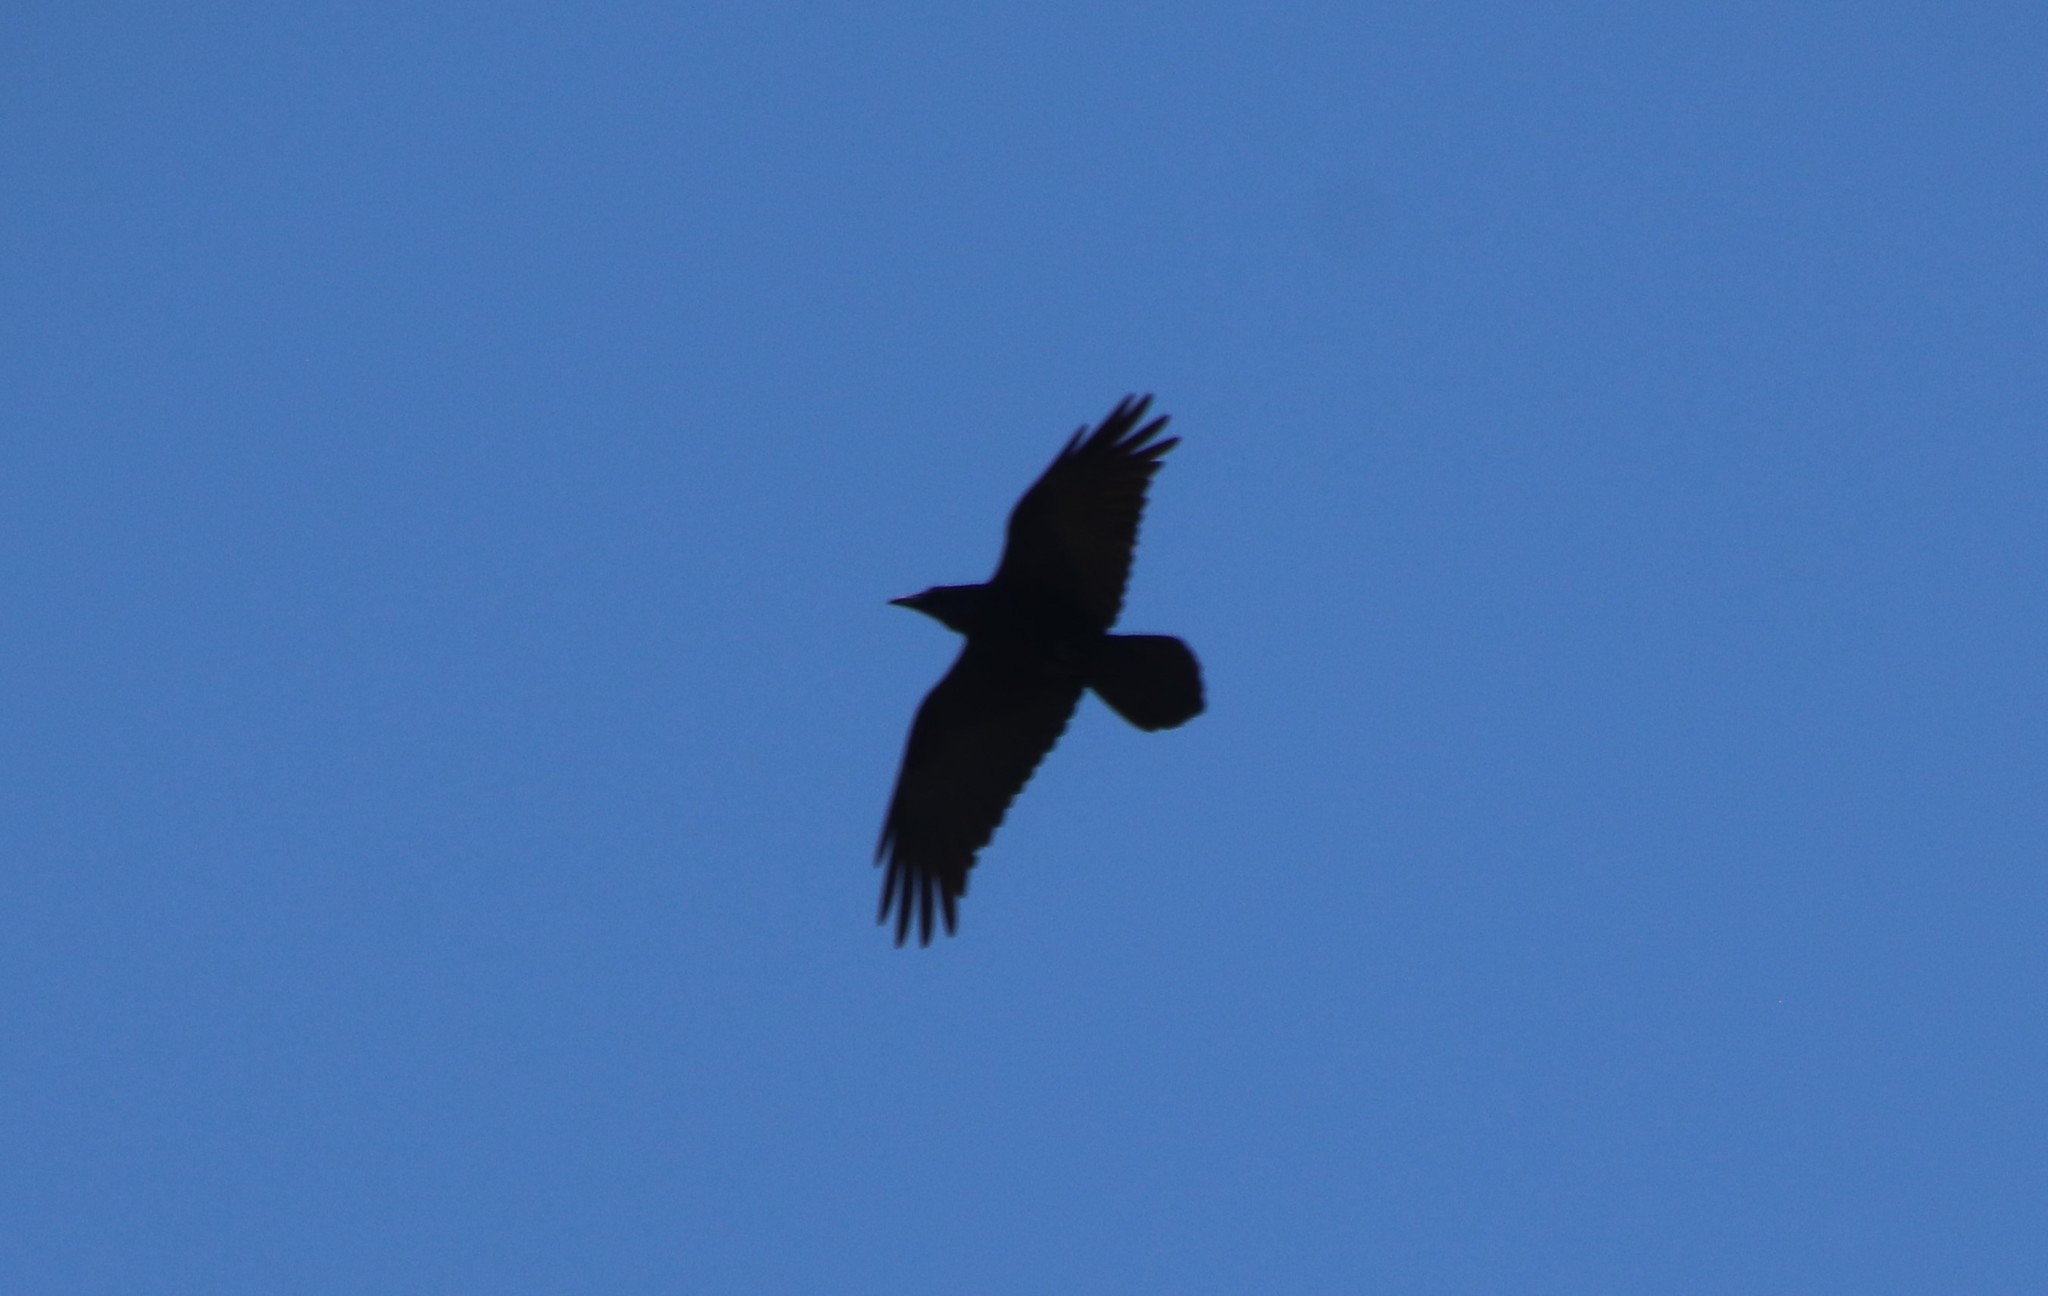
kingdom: Animalia
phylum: Chordata
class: Aves
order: Passeriformes
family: Corvidae
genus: Corvus
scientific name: Corvus corax
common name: Common raven
